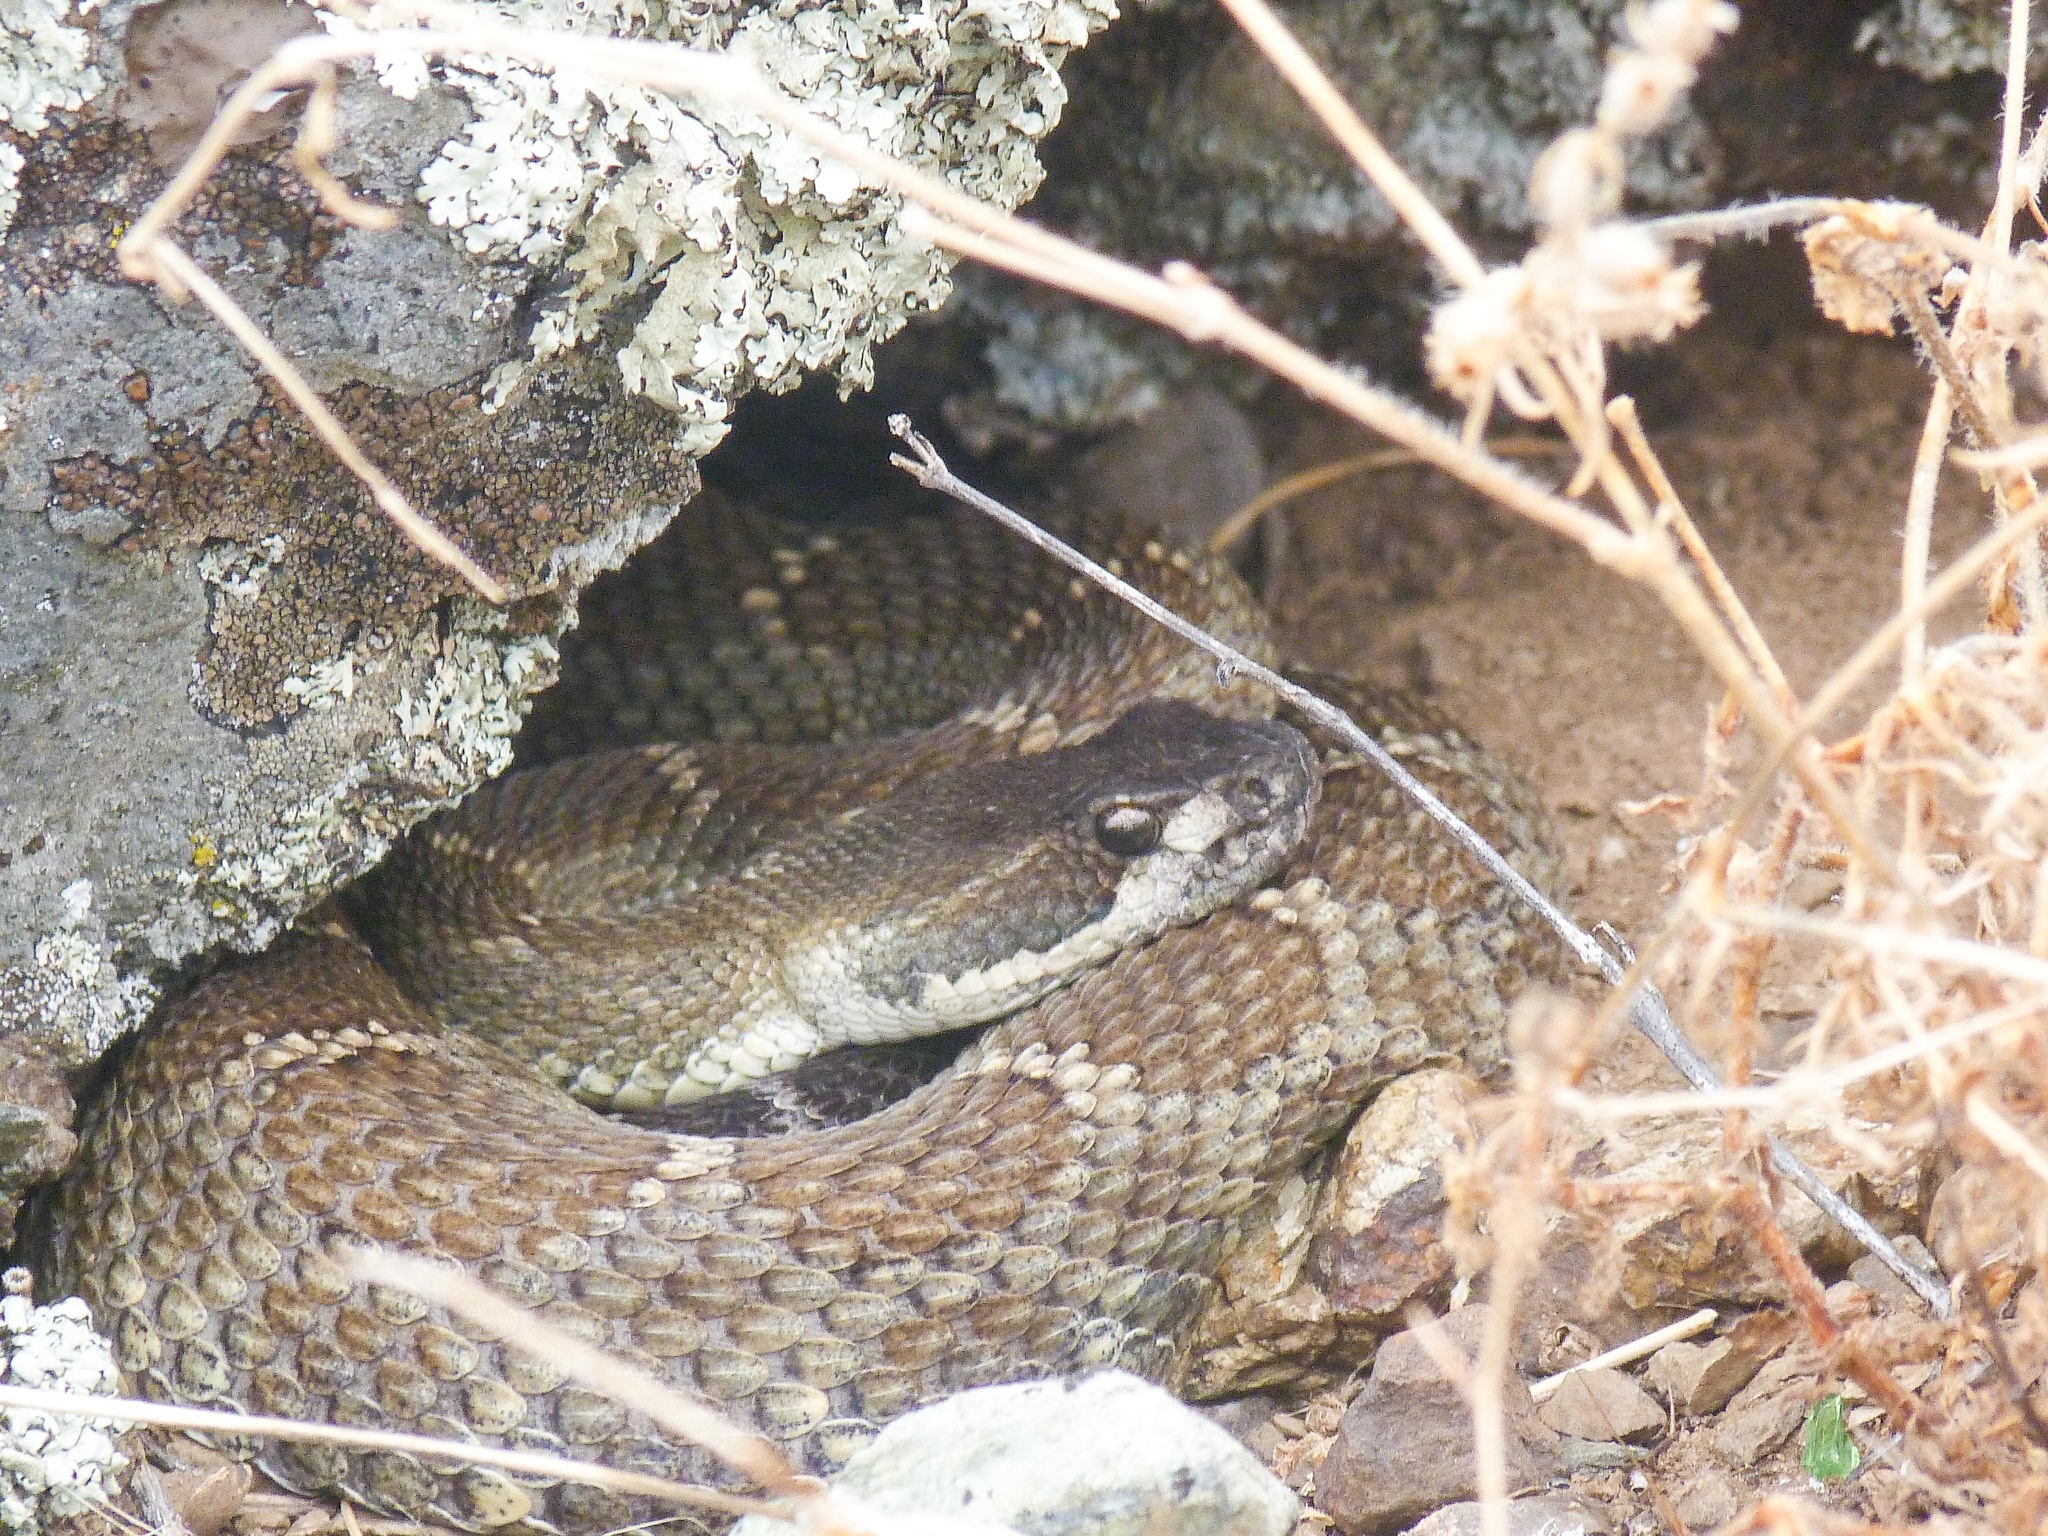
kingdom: Animalia
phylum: Chordata
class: Squamata
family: Viperidae
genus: Crotalus
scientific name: Crotalus oreganus
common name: Abyssus
